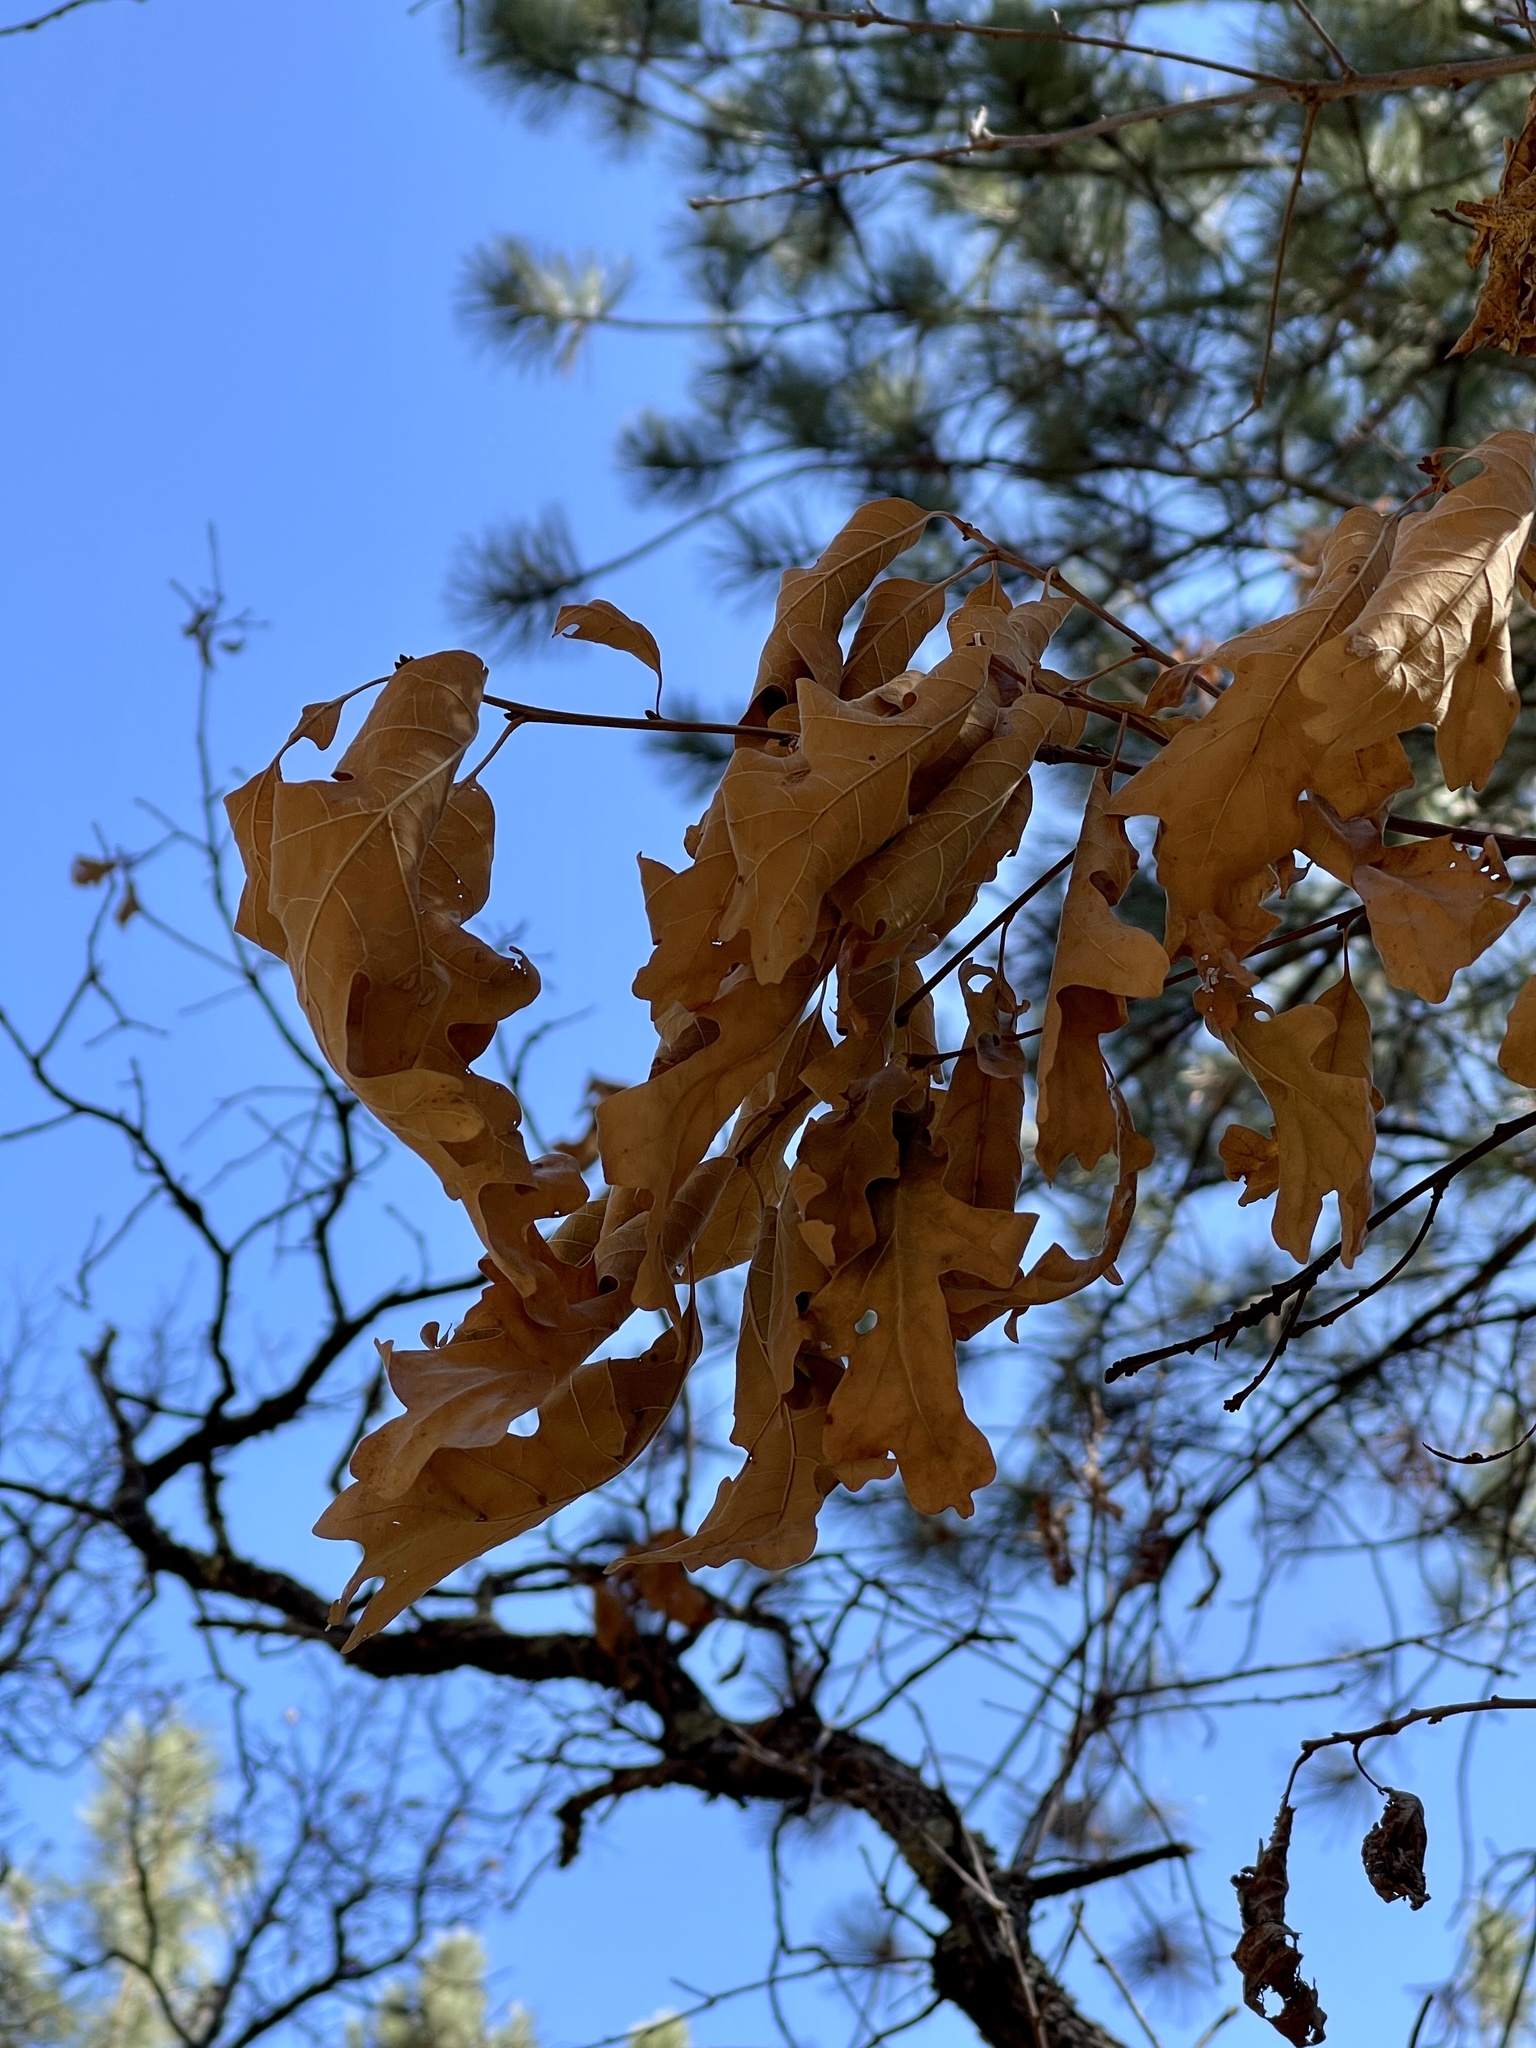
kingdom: Plantae
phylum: Tracheophyta
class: Magnoliopsida
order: Fagales
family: Fagaceae
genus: Quercus
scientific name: Quercus gambelii
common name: Gambel oak
